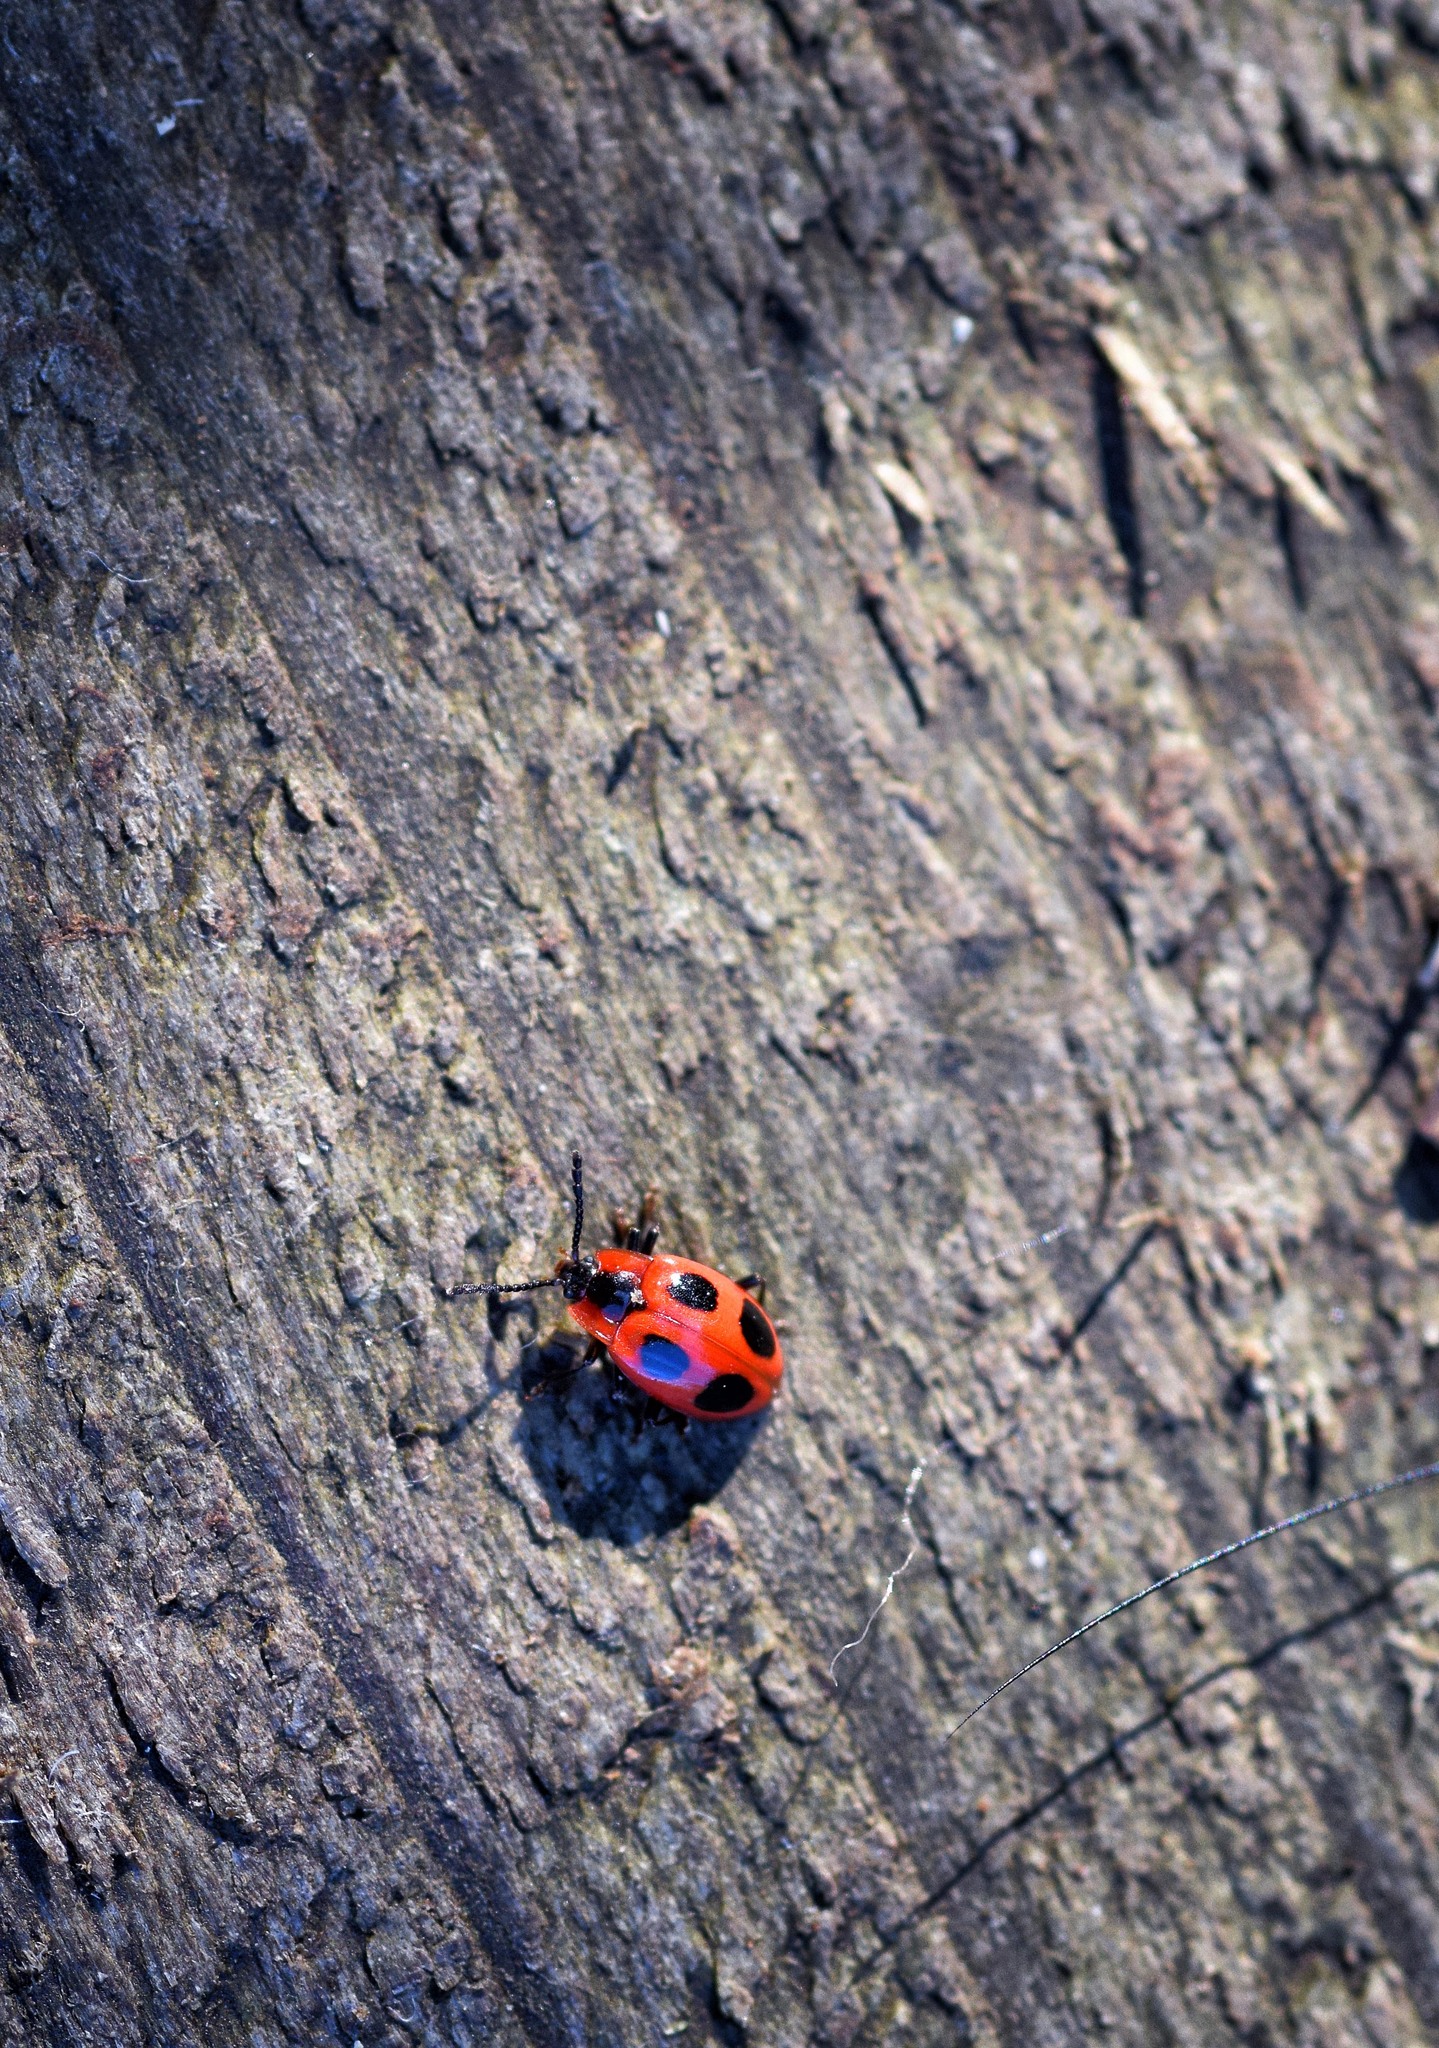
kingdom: Animalia
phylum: Arthropoda
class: Insecta
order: Coleoptera
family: Endomychidae
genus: Endomychus
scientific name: Endomychus coccineus
